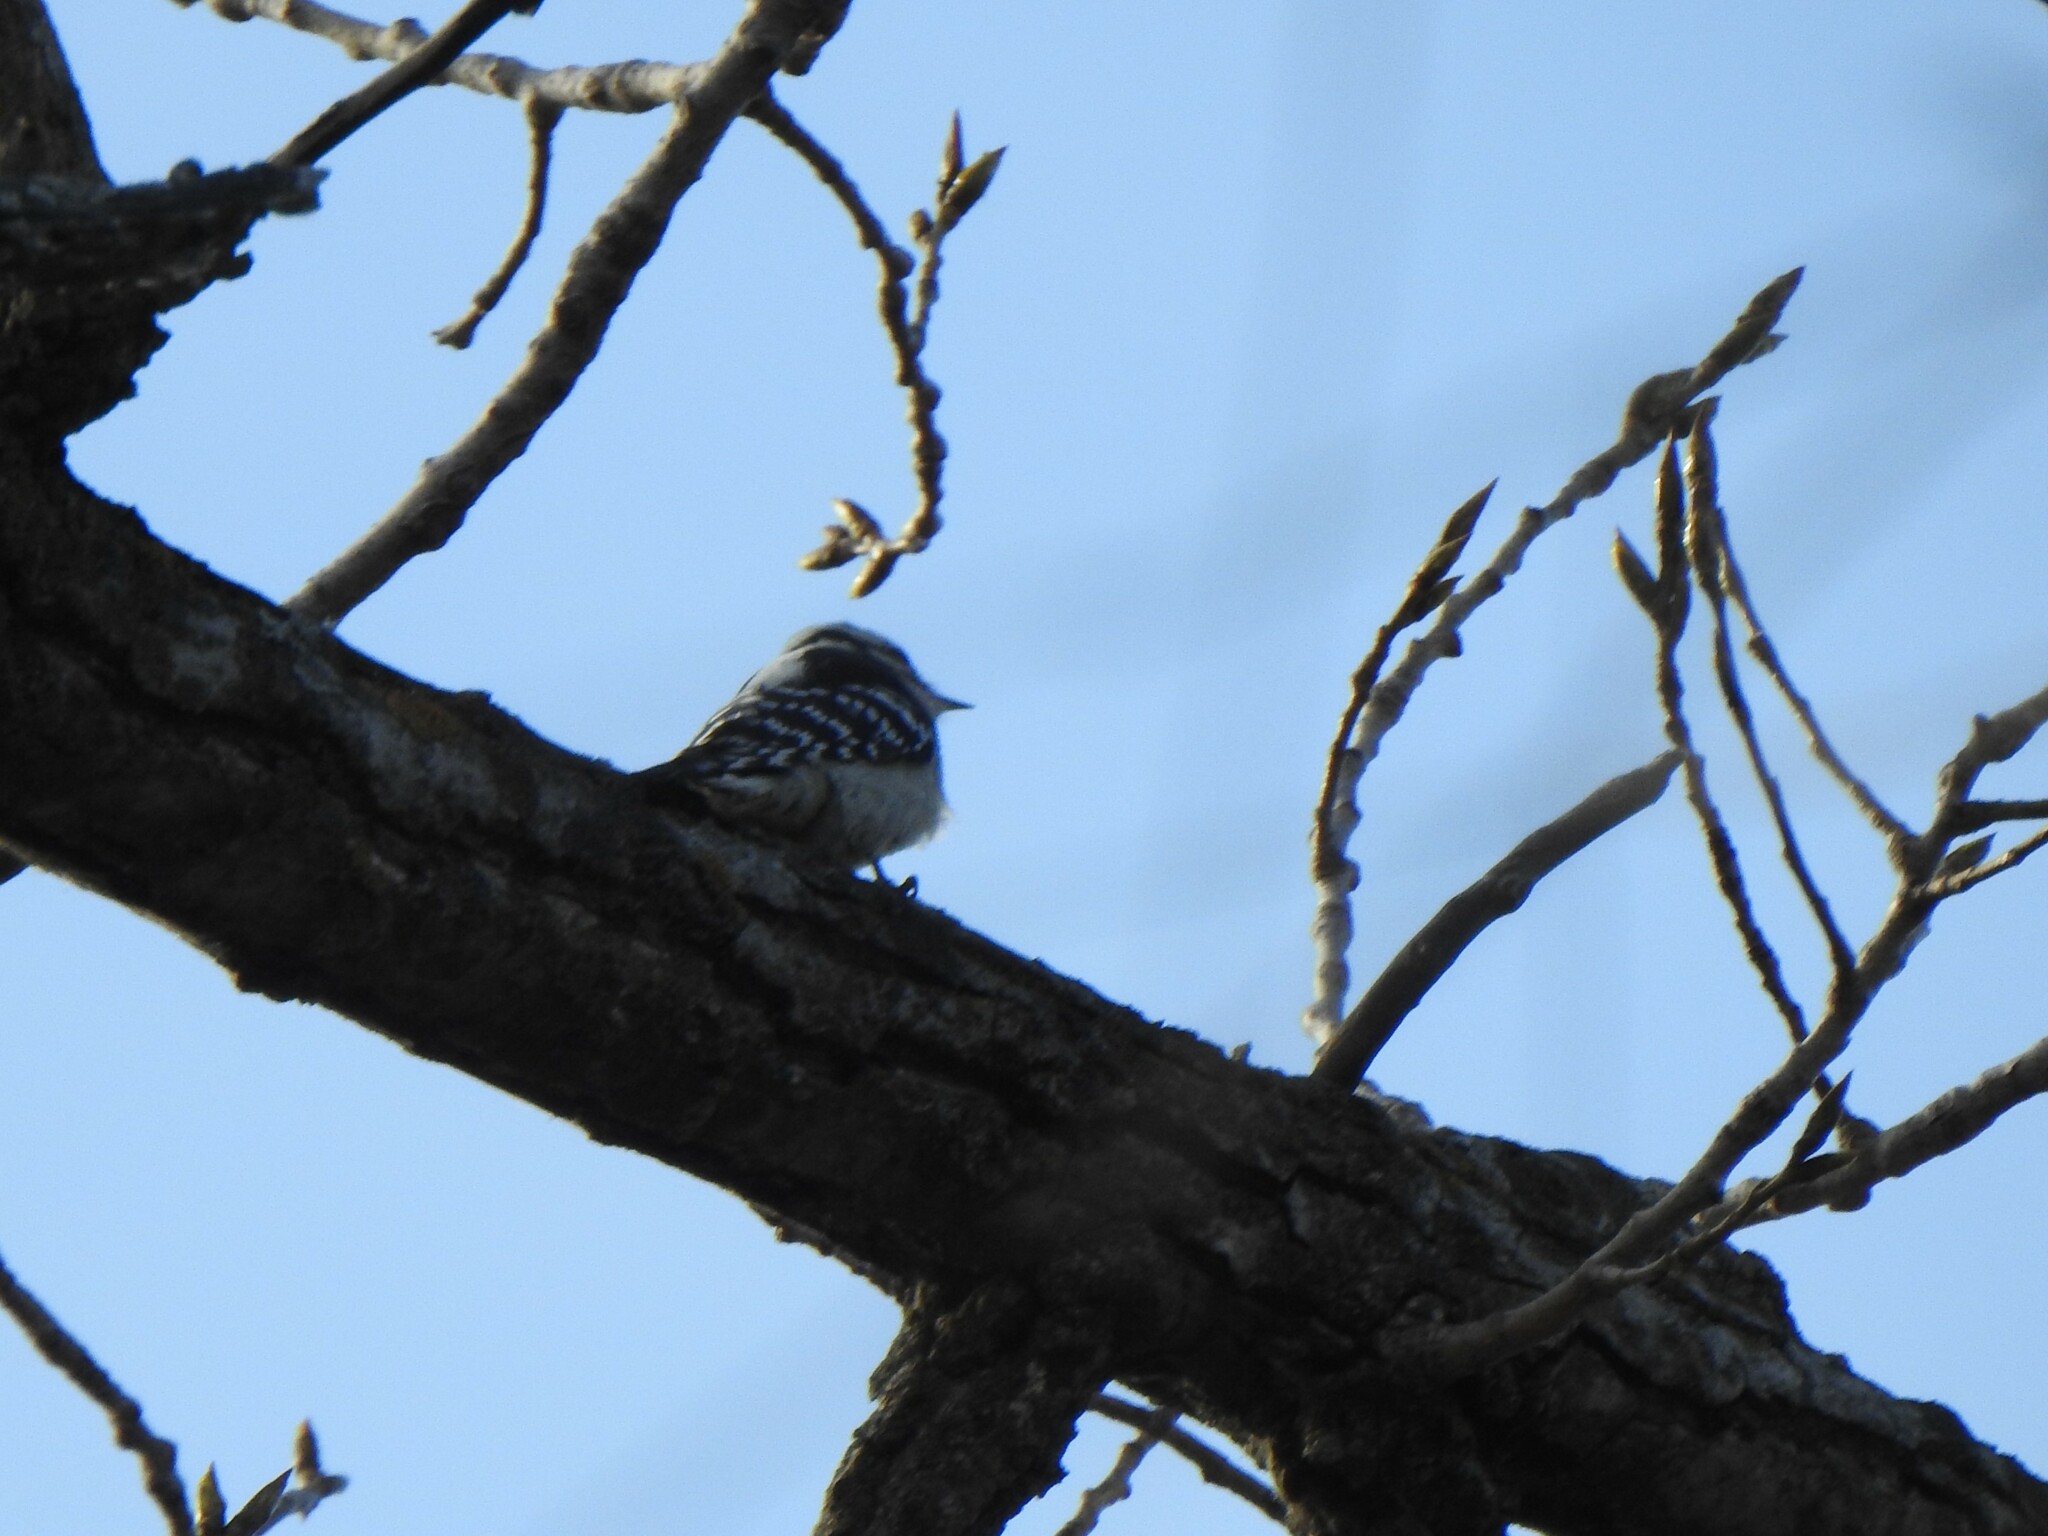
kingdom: Animalia
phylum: Chordata
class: Aves
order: Piciformes
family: Picidae
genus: Dryobates
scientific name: Dryobates pubescens
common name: Downy woodpecker
